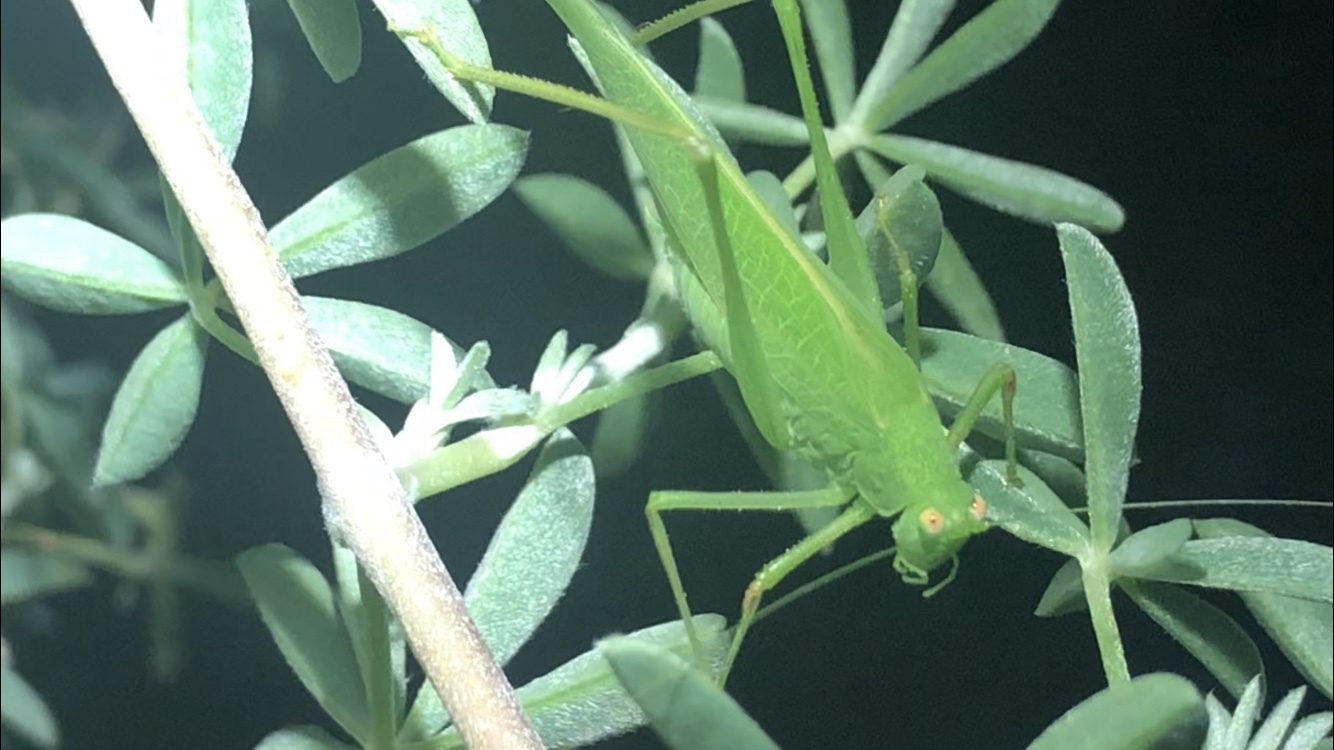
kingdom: Animalia
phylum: Arthropoda
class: Insecta
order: Orthoptera
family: Tettigoniidae
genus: Phaneroptera
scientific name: Phaneroptera nana
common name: Southern sickle bush-cricket
